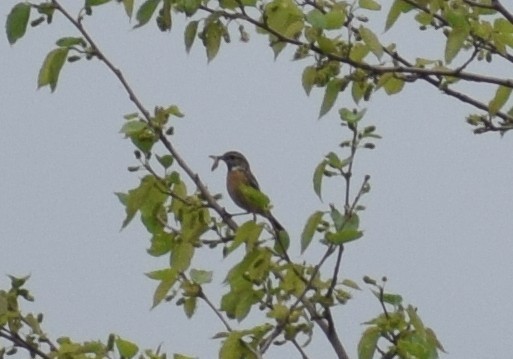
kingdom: Animalia
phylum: Chordata
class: Aves
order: Passeriformes
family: Muscicapidae
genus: Saxicola
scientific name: Saxicola rubicola
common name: European stonechat
